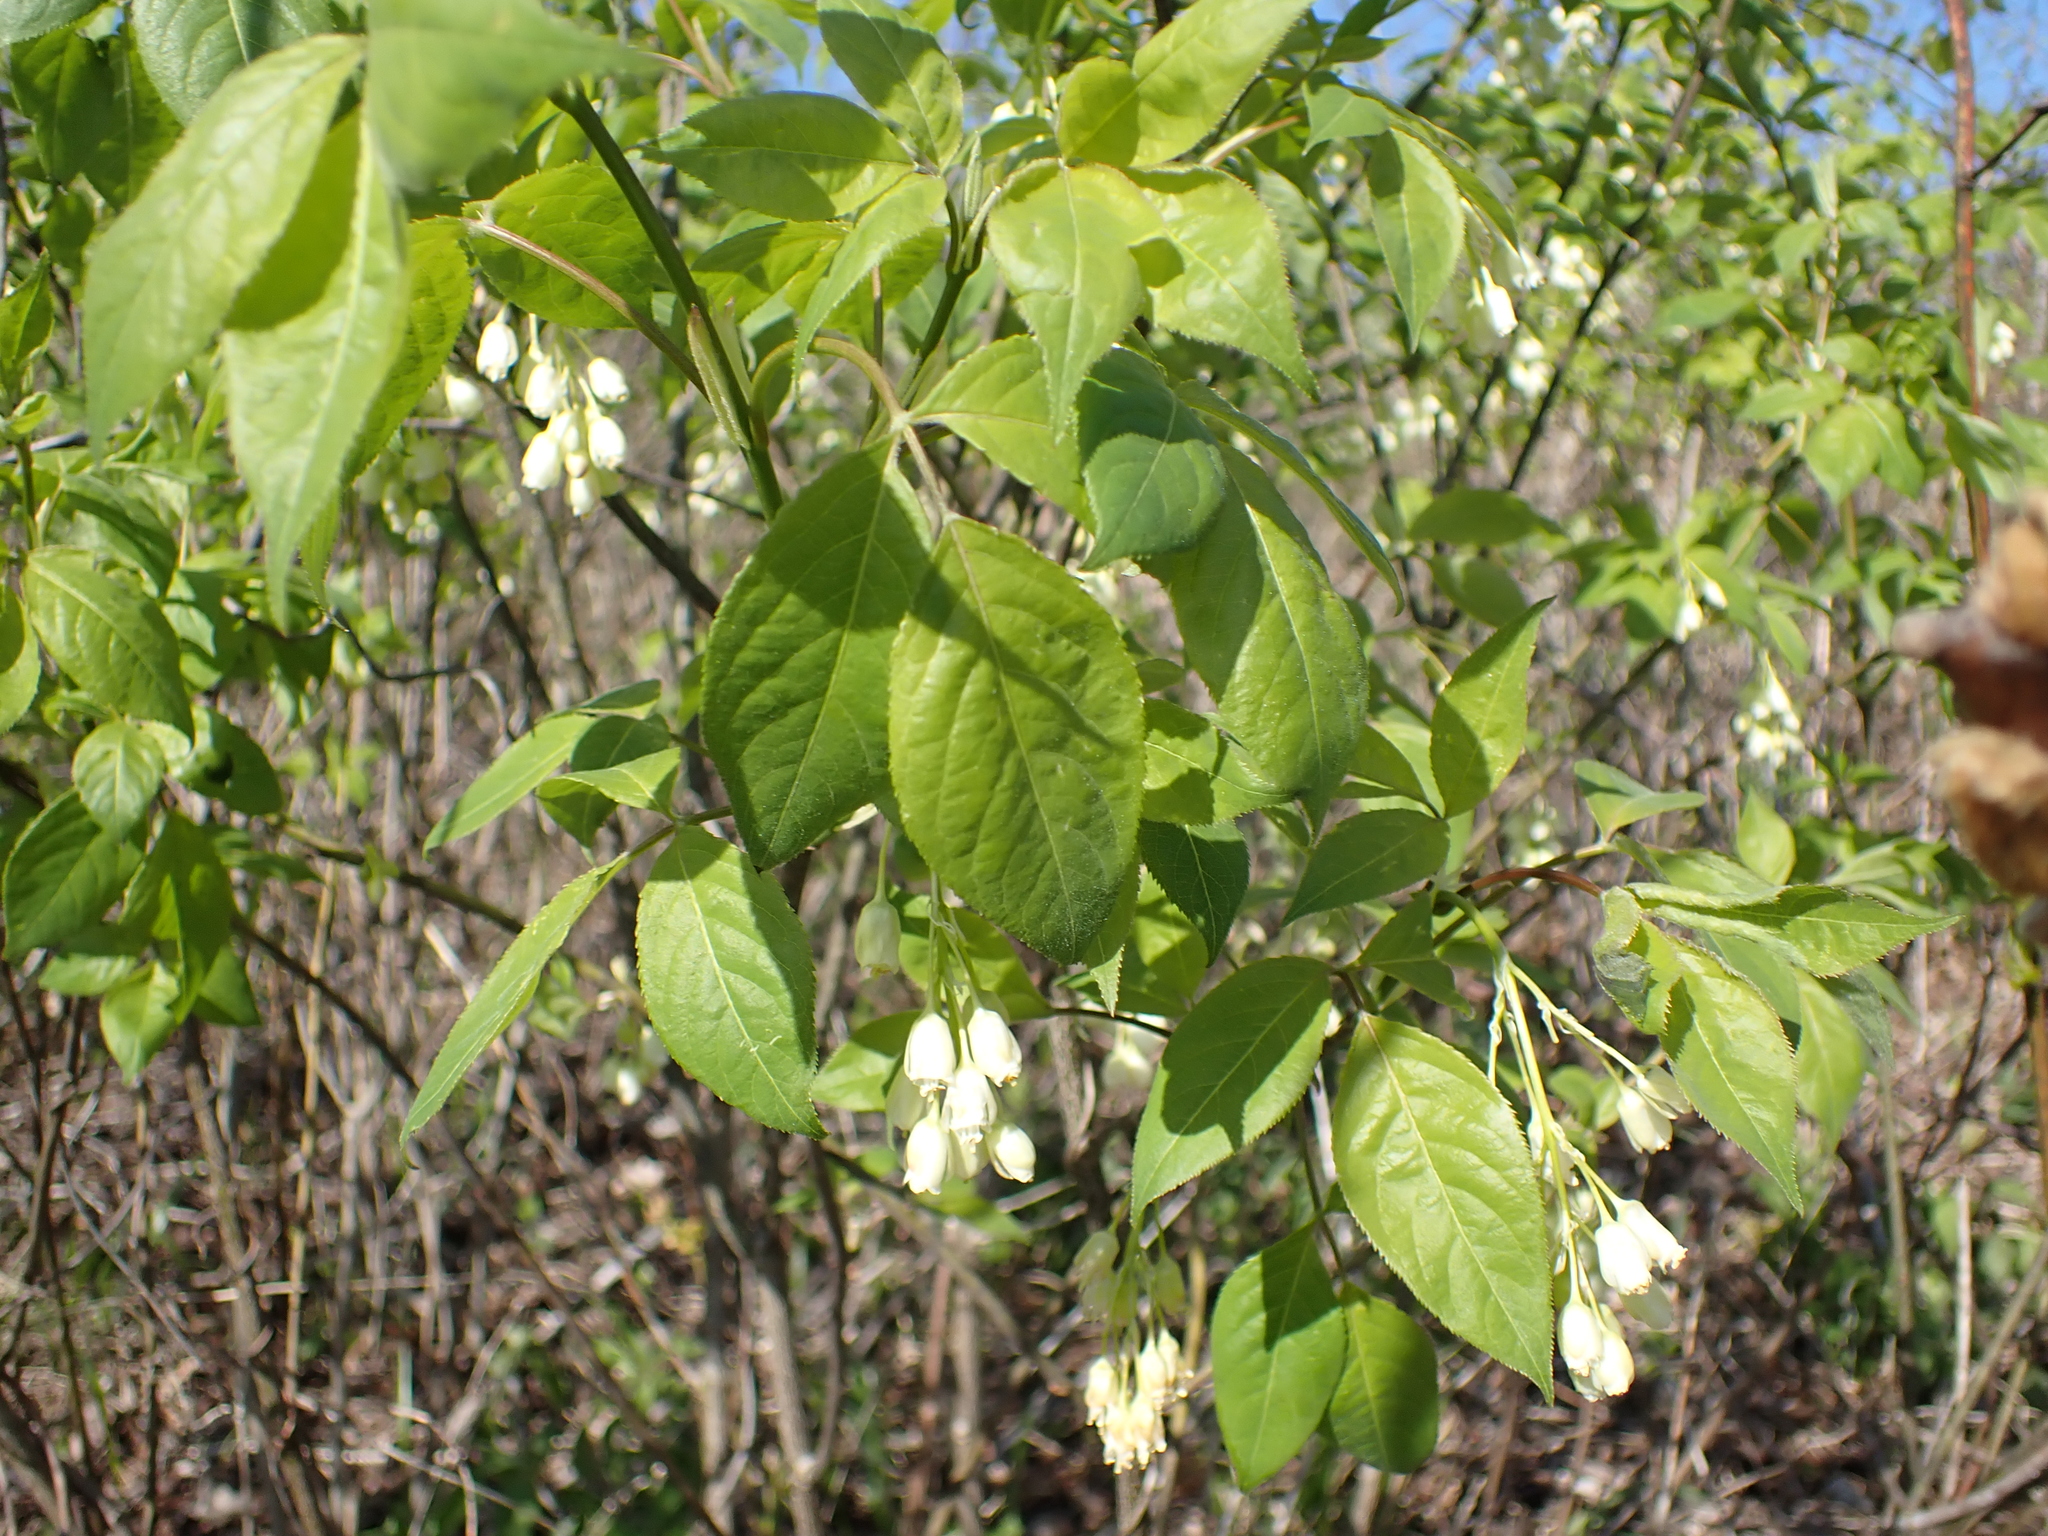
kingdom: Plantae
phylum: Tracheophyta
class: Magnoliopsida
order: Crossosomatales
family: Staphyleaceae
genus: Staphylea
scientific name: Staphylea trifolia
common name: American bladdernut
